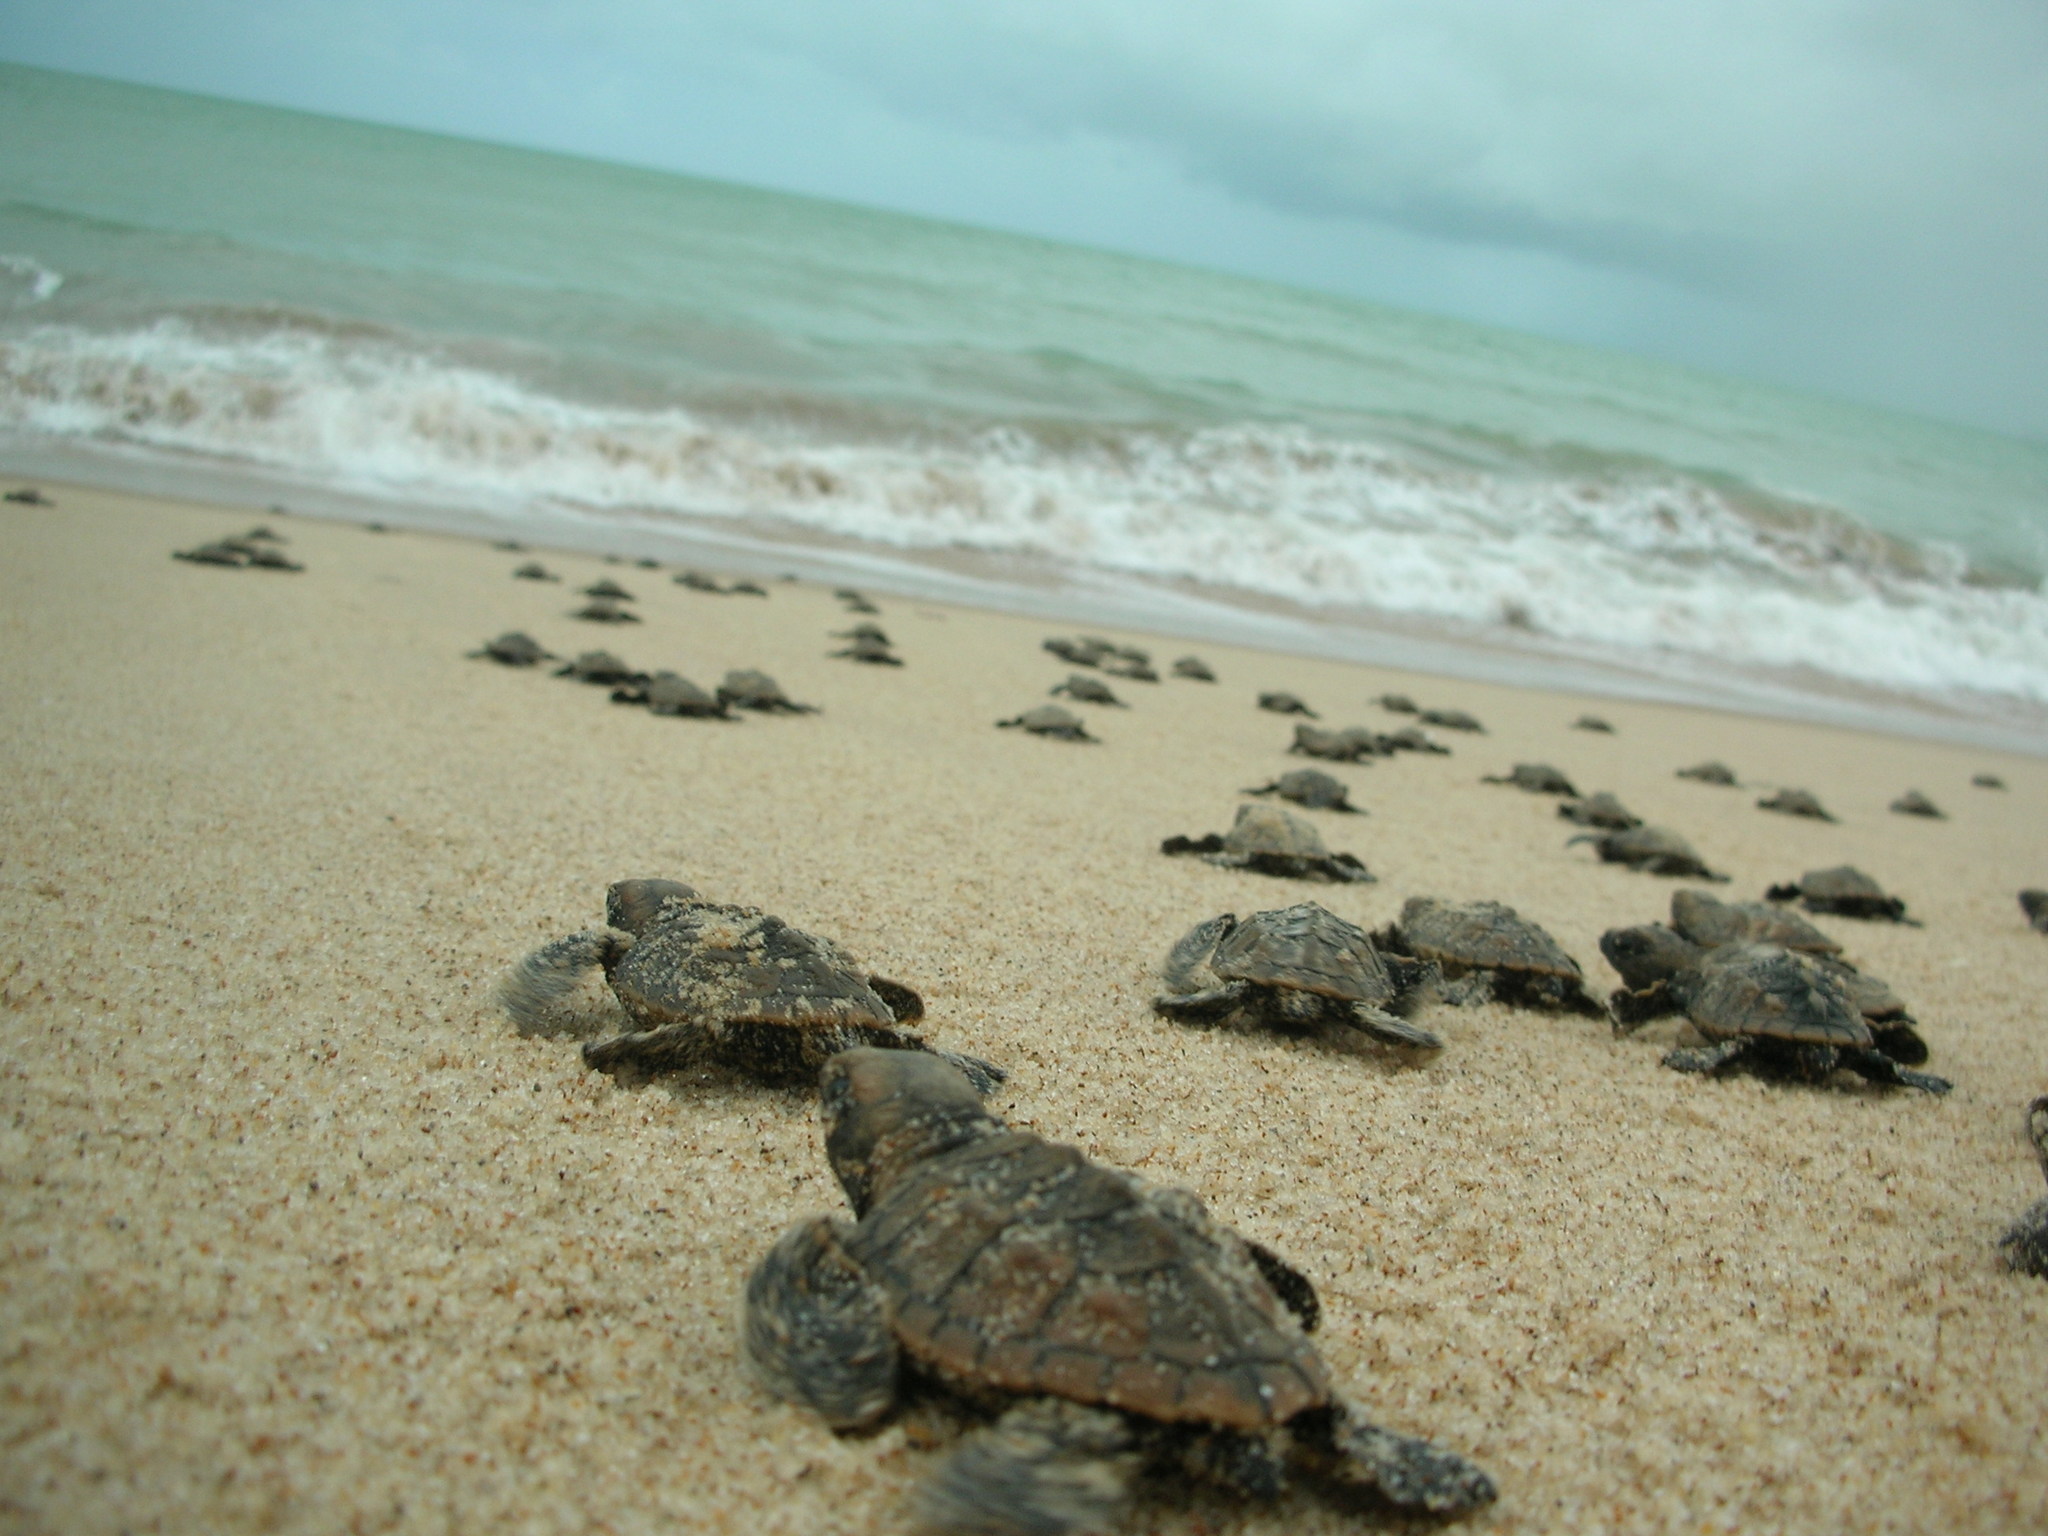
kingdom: Animalia
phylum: Chordata
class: Testudines
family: Cheloniidae
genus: Eretmochelys
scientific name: Eretmochelys imbricata
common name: Hawksbill turtle
